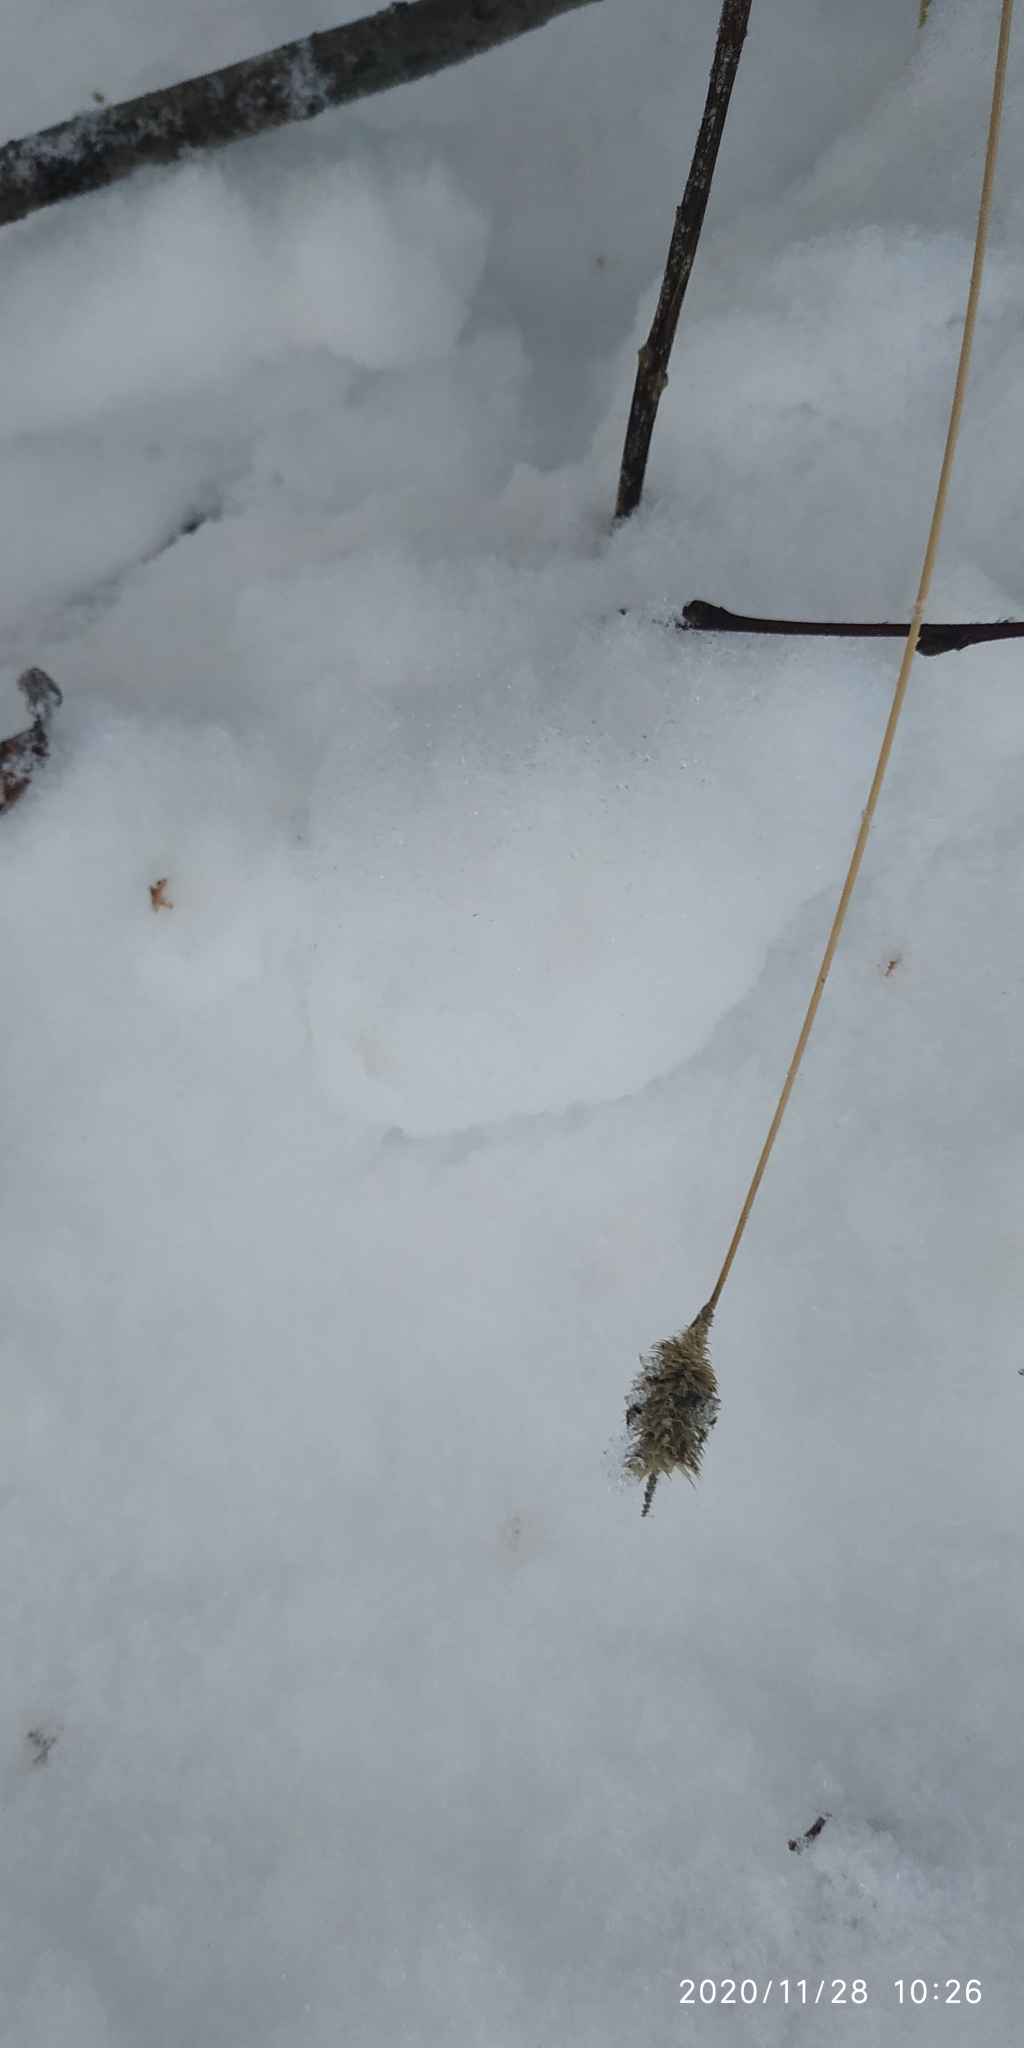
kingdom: Plantae
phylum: Tracheophyta
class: Liliopsida
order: Poales
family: Poaceae
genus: Phleum
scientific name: Phleum pratense
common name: Timothy grass
